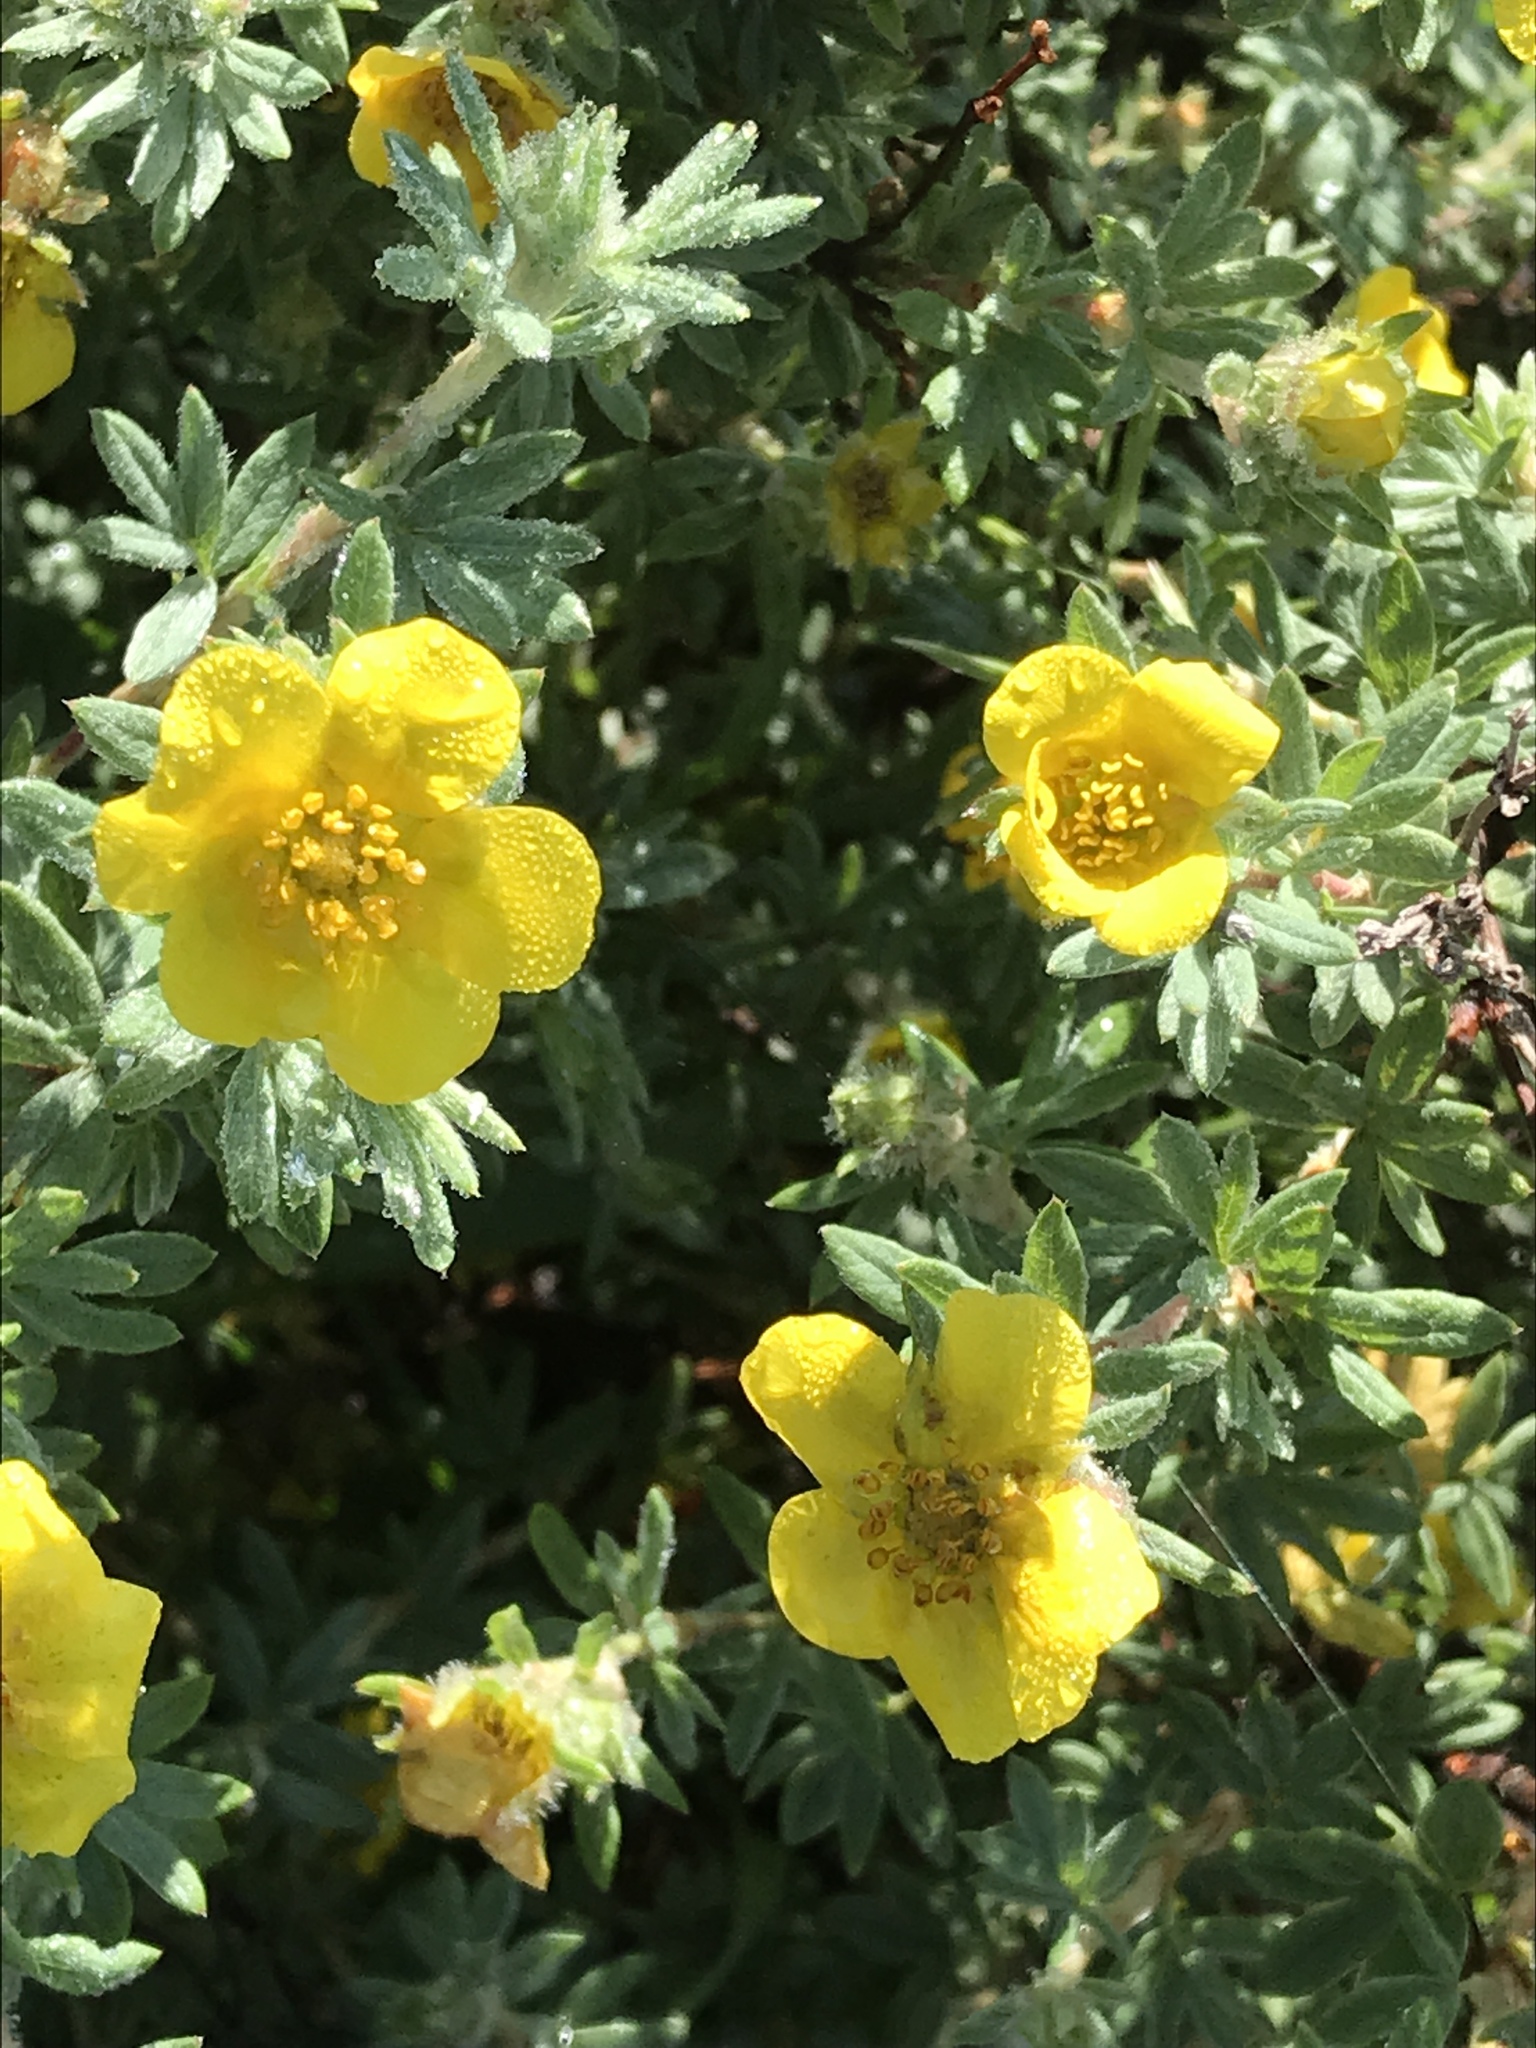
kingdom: Plantae
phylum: Tracheophyta
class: Magnoliopsida
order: Rosales
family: Rosaceae
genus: Dasiphora
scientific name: Dasiphora fruticosa
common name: Shrubby cinquefoil
